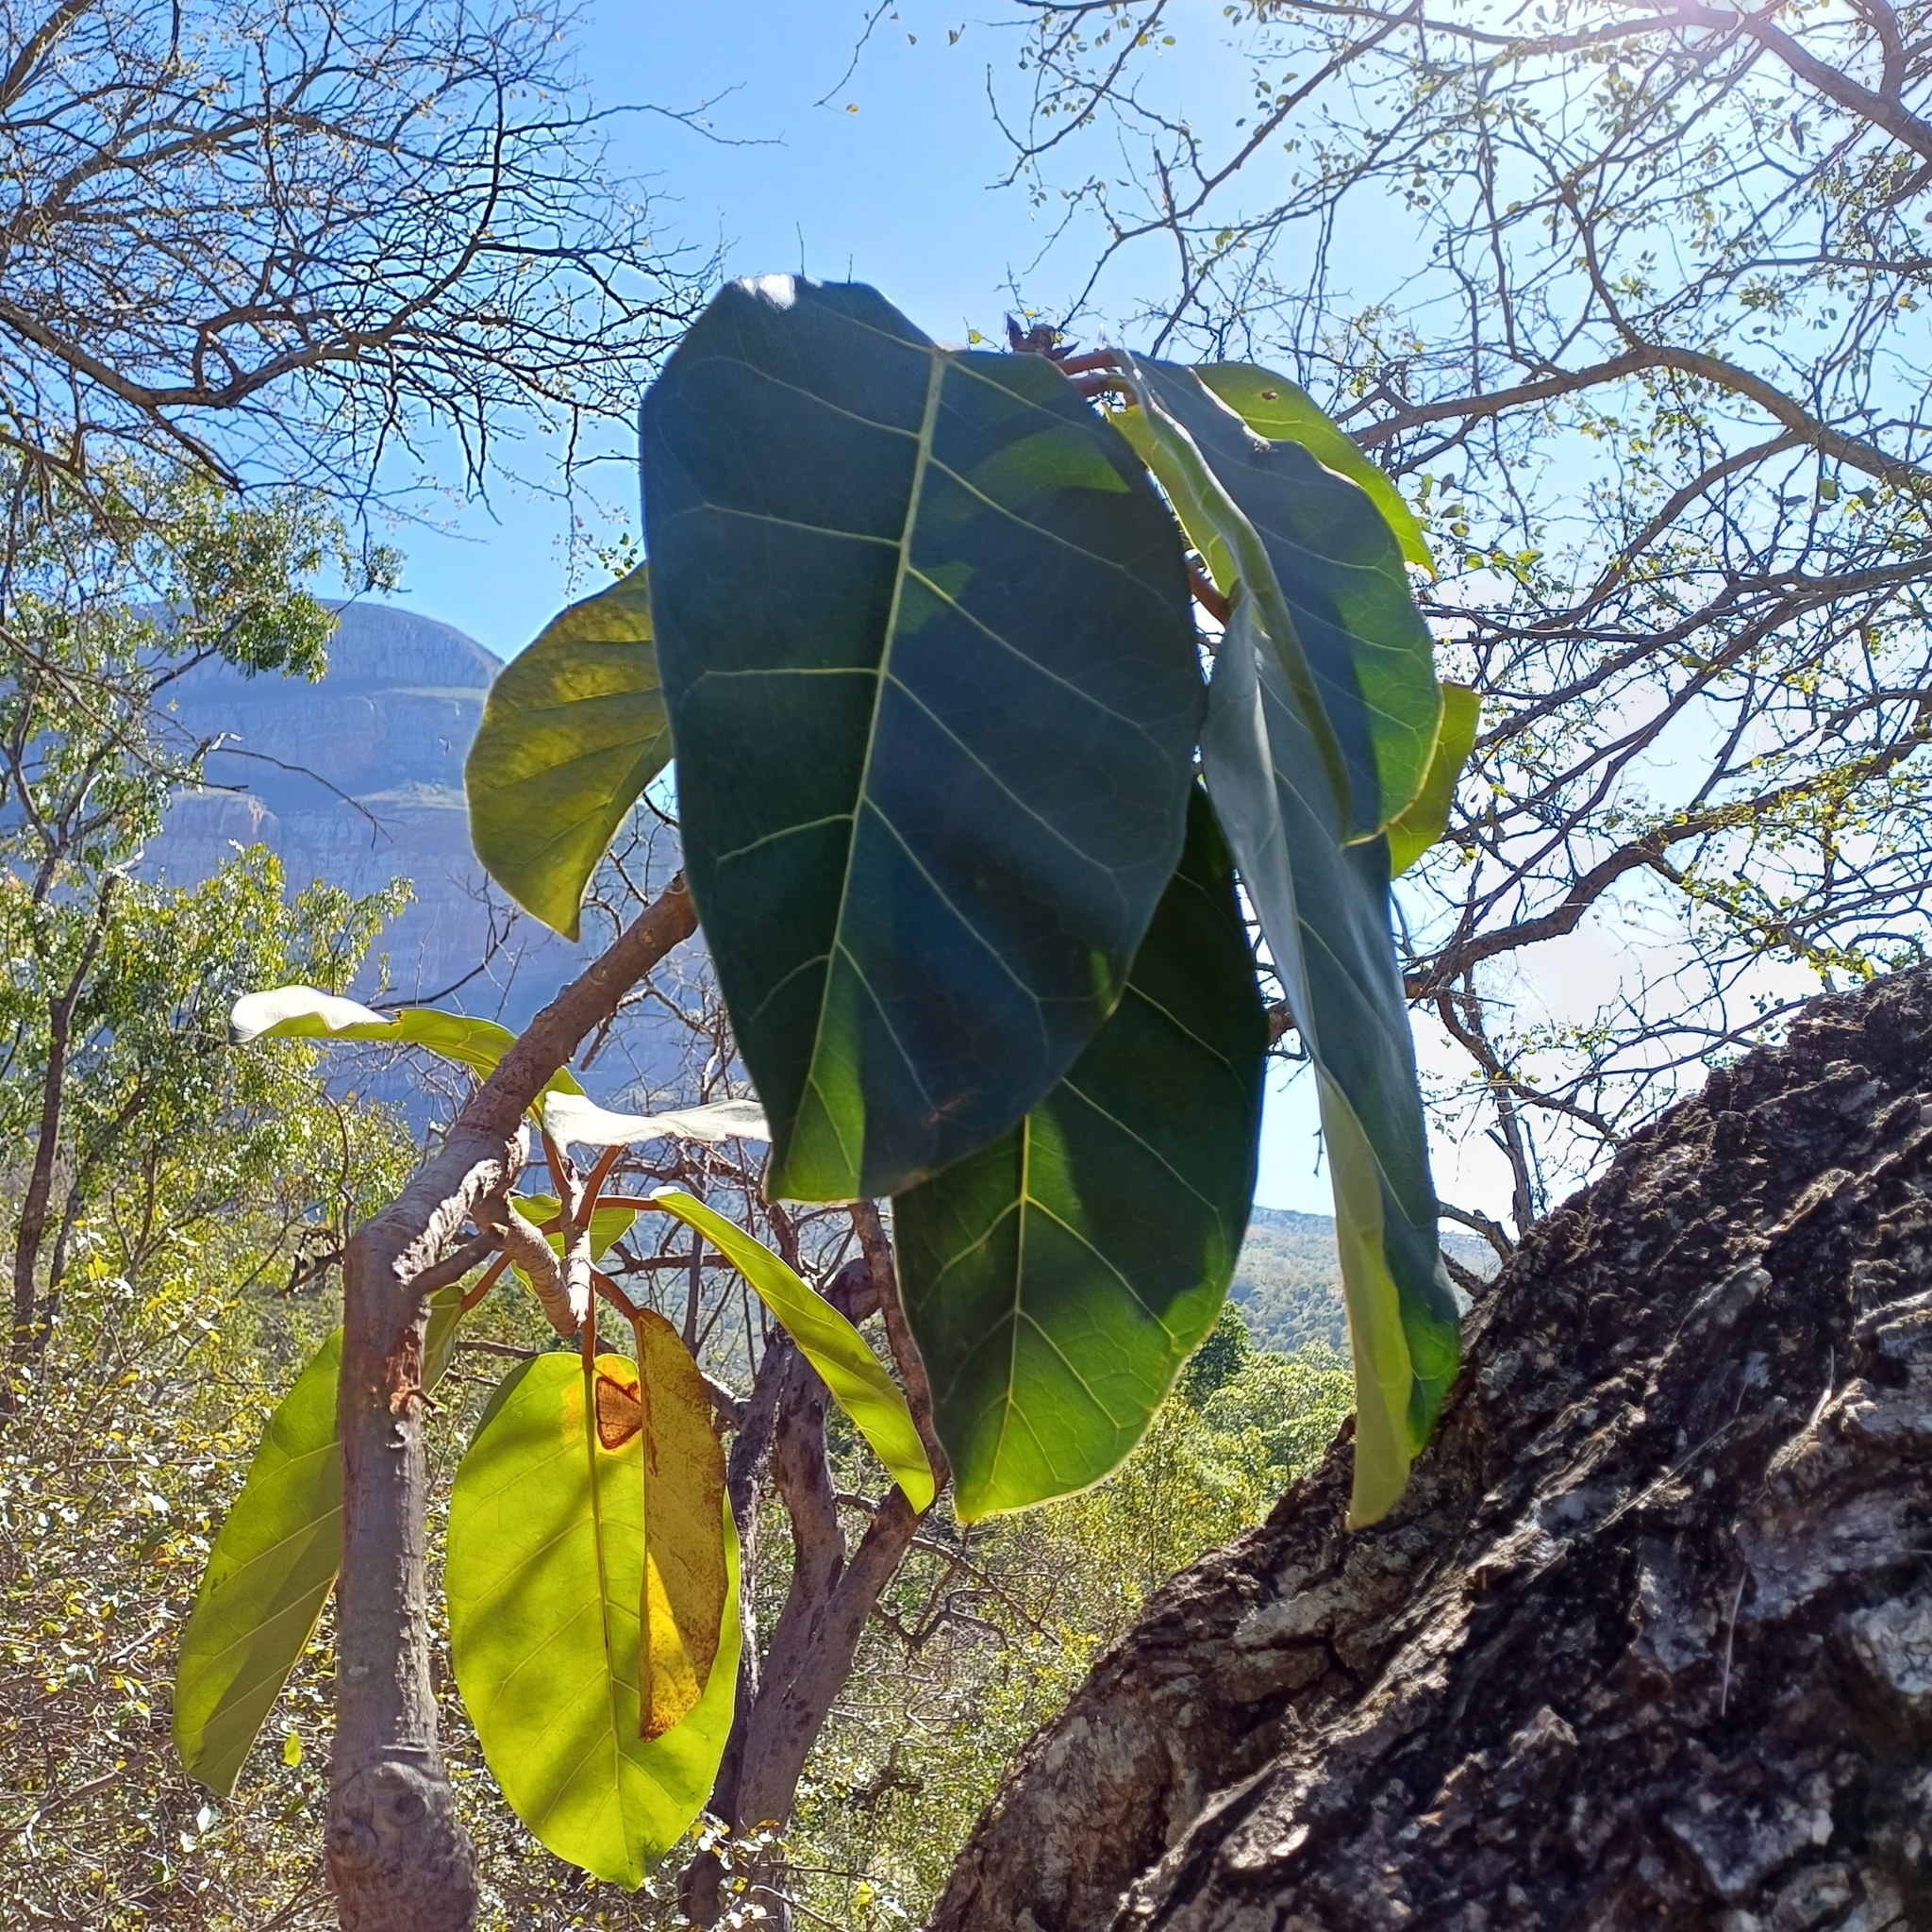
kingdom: Plantae
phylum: Tracheophyta
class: Magnoliopsida
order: Rosales
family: Moraceae
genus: Ficus
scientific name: Ficus lutea
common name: Giant-leaved fig
